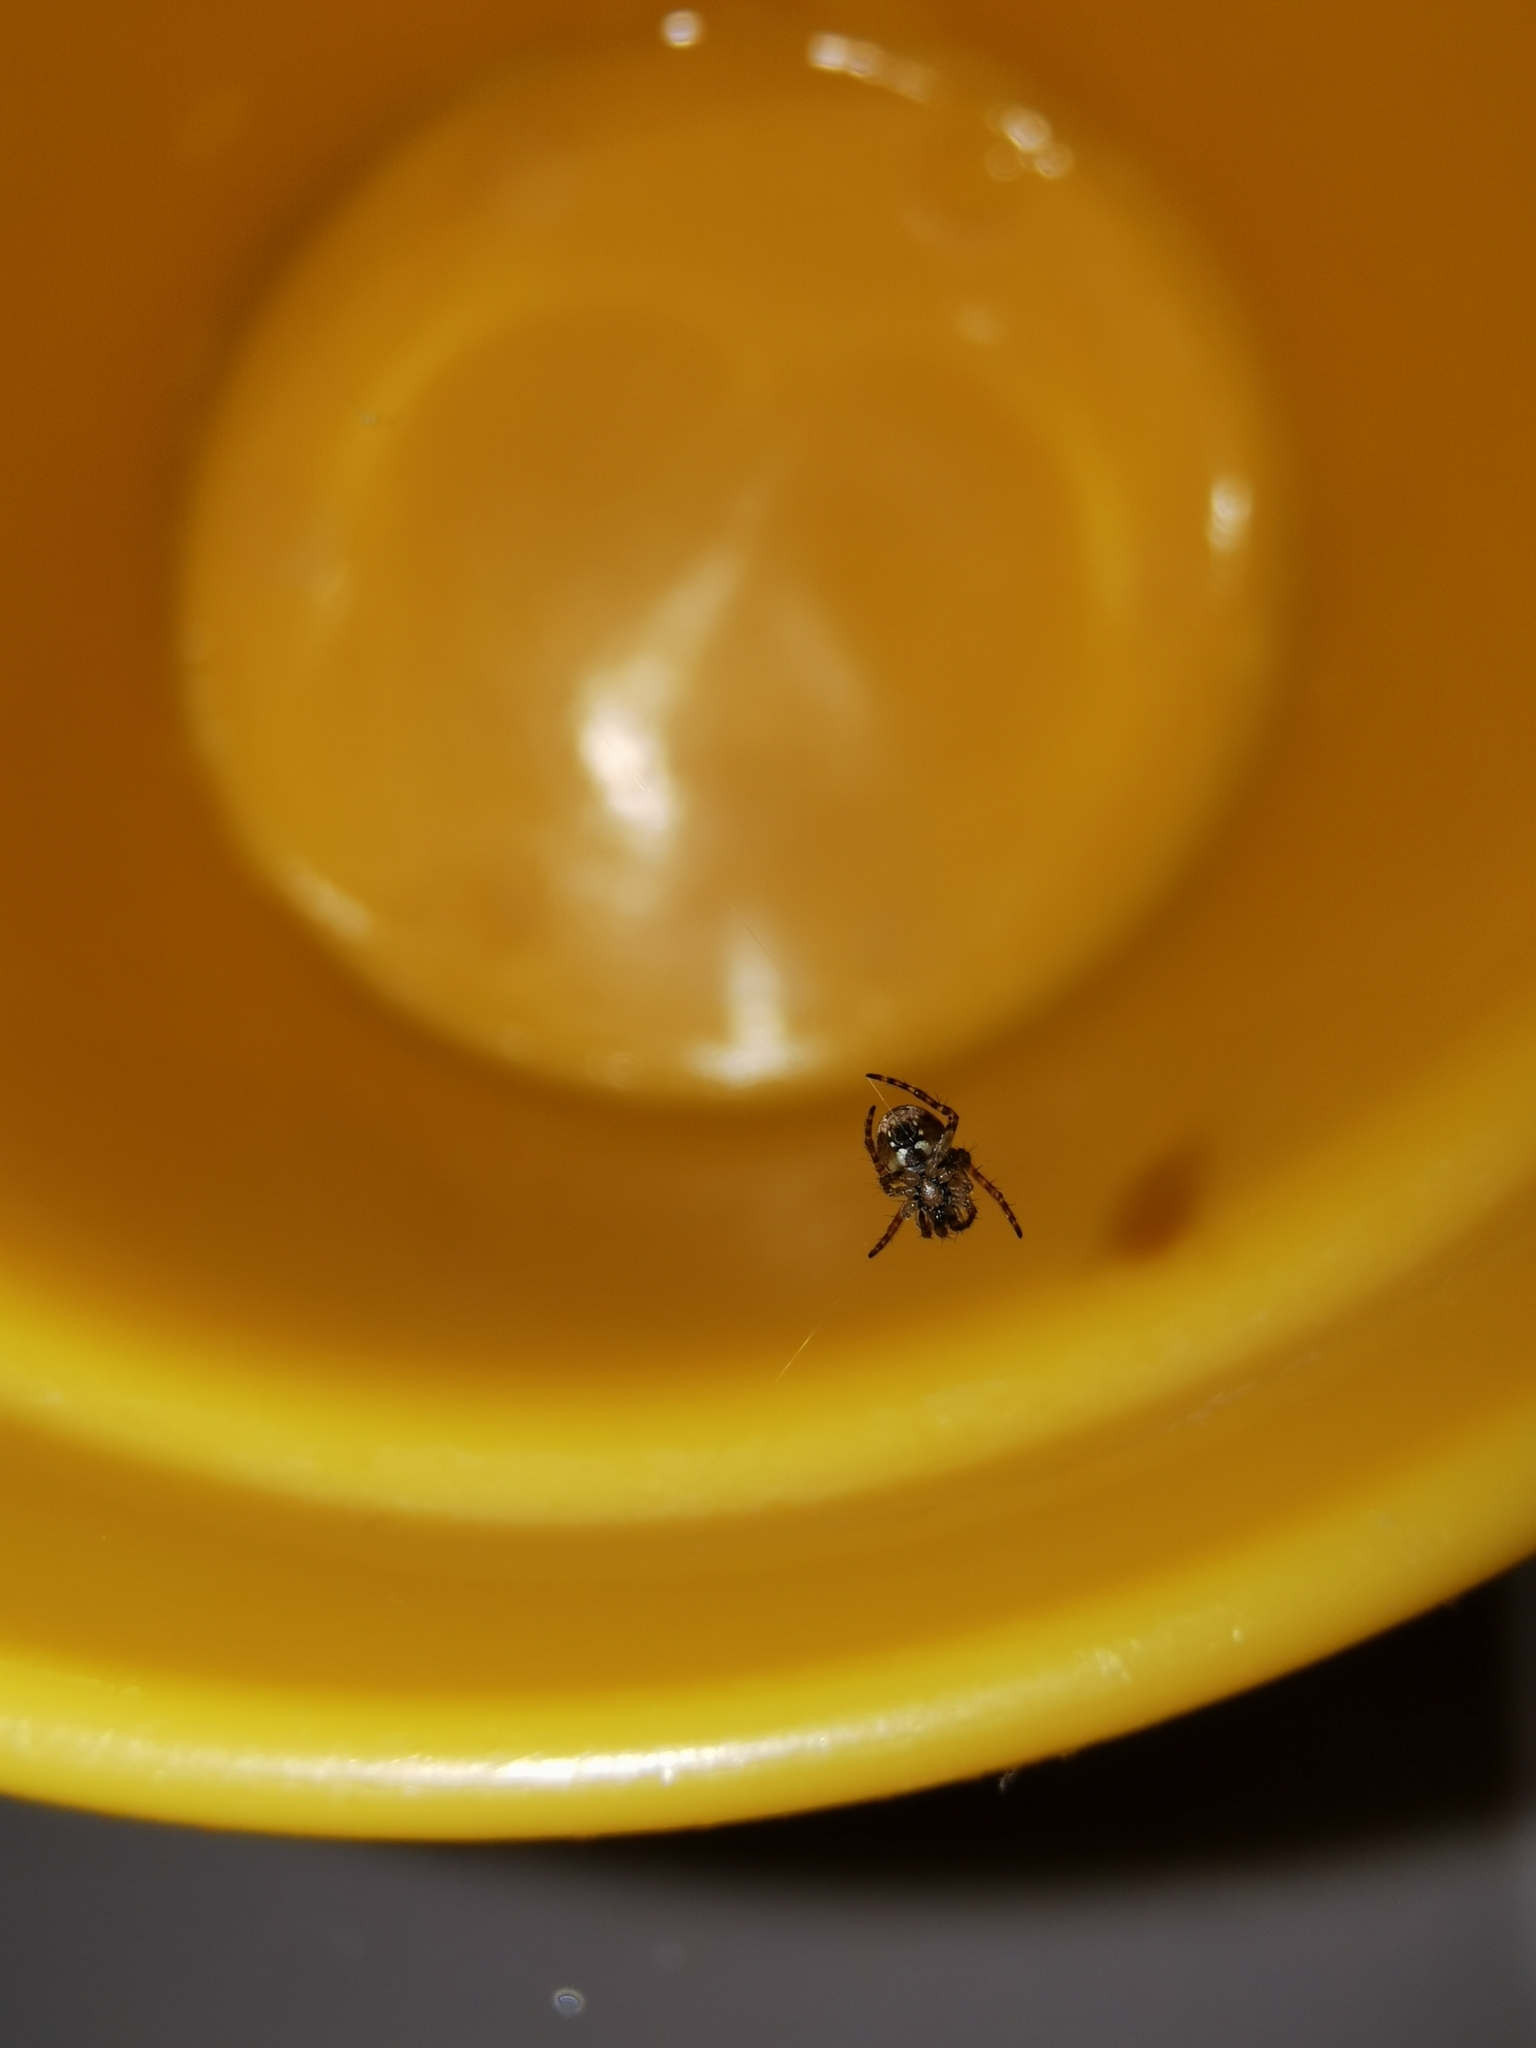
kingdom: Animalia
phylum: Arthropoda
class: Arachnida
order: Araneae
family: Araneidae
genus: Zilla
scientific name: Zilla diodia
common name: Zilla diodia
